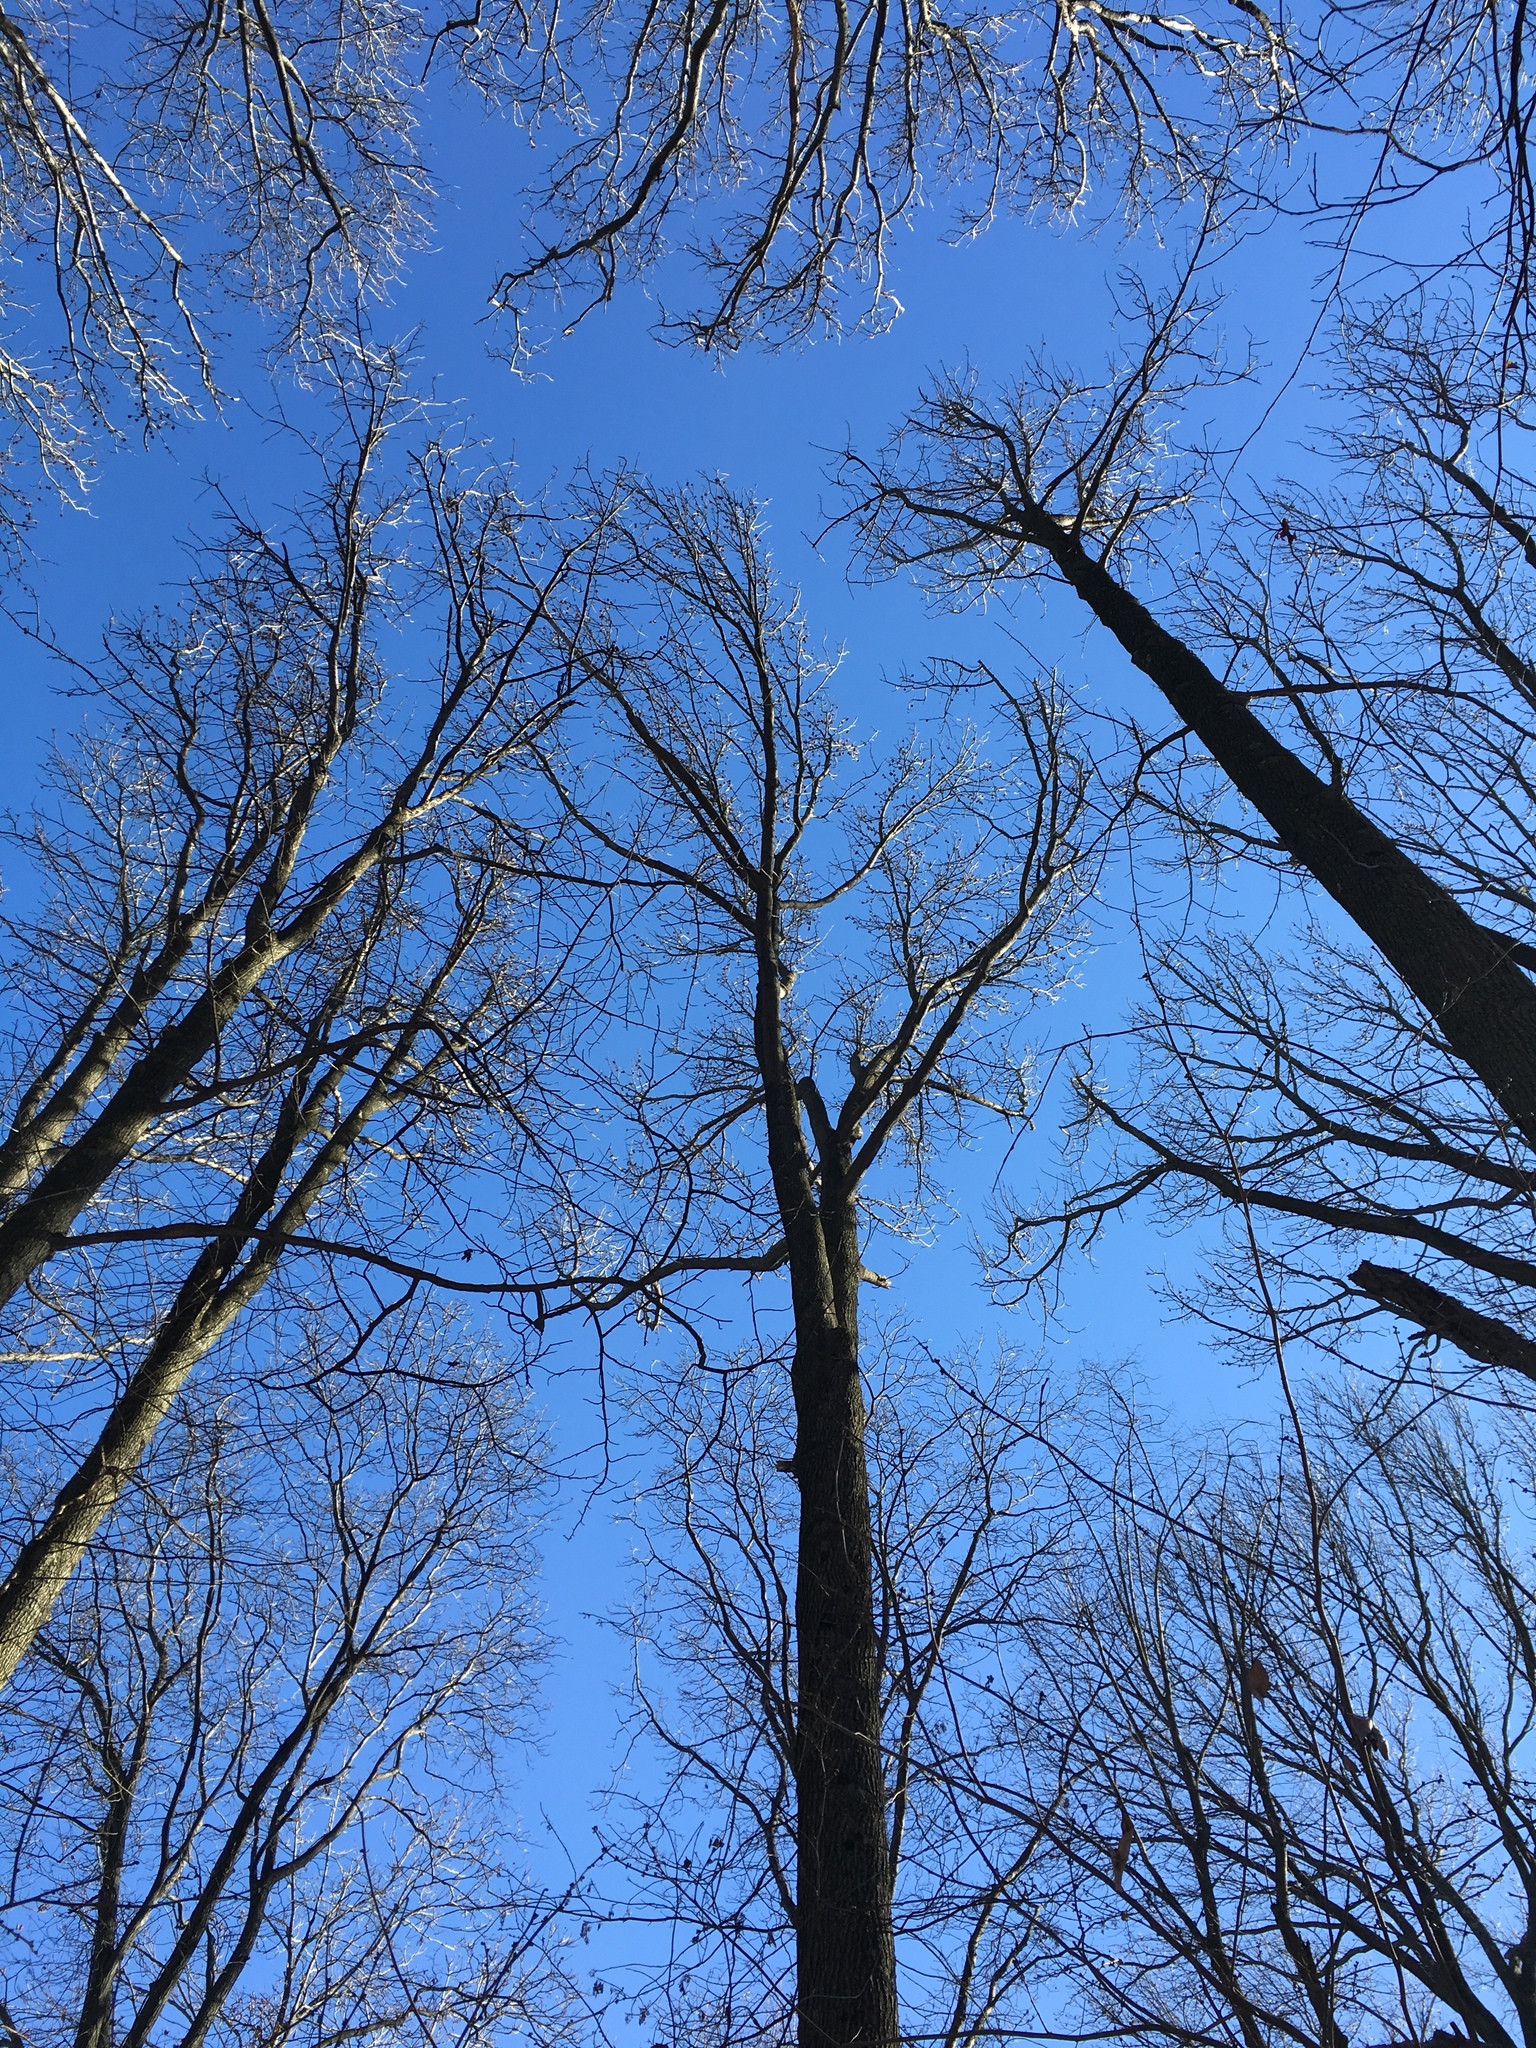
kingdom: Plantae
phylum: Tracheophyta
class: Magnoliopsida
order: Saxifragales
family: Altingiaceae
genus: Liquidambar
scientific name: Liquidambar styraciflua
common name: Sweet gum
